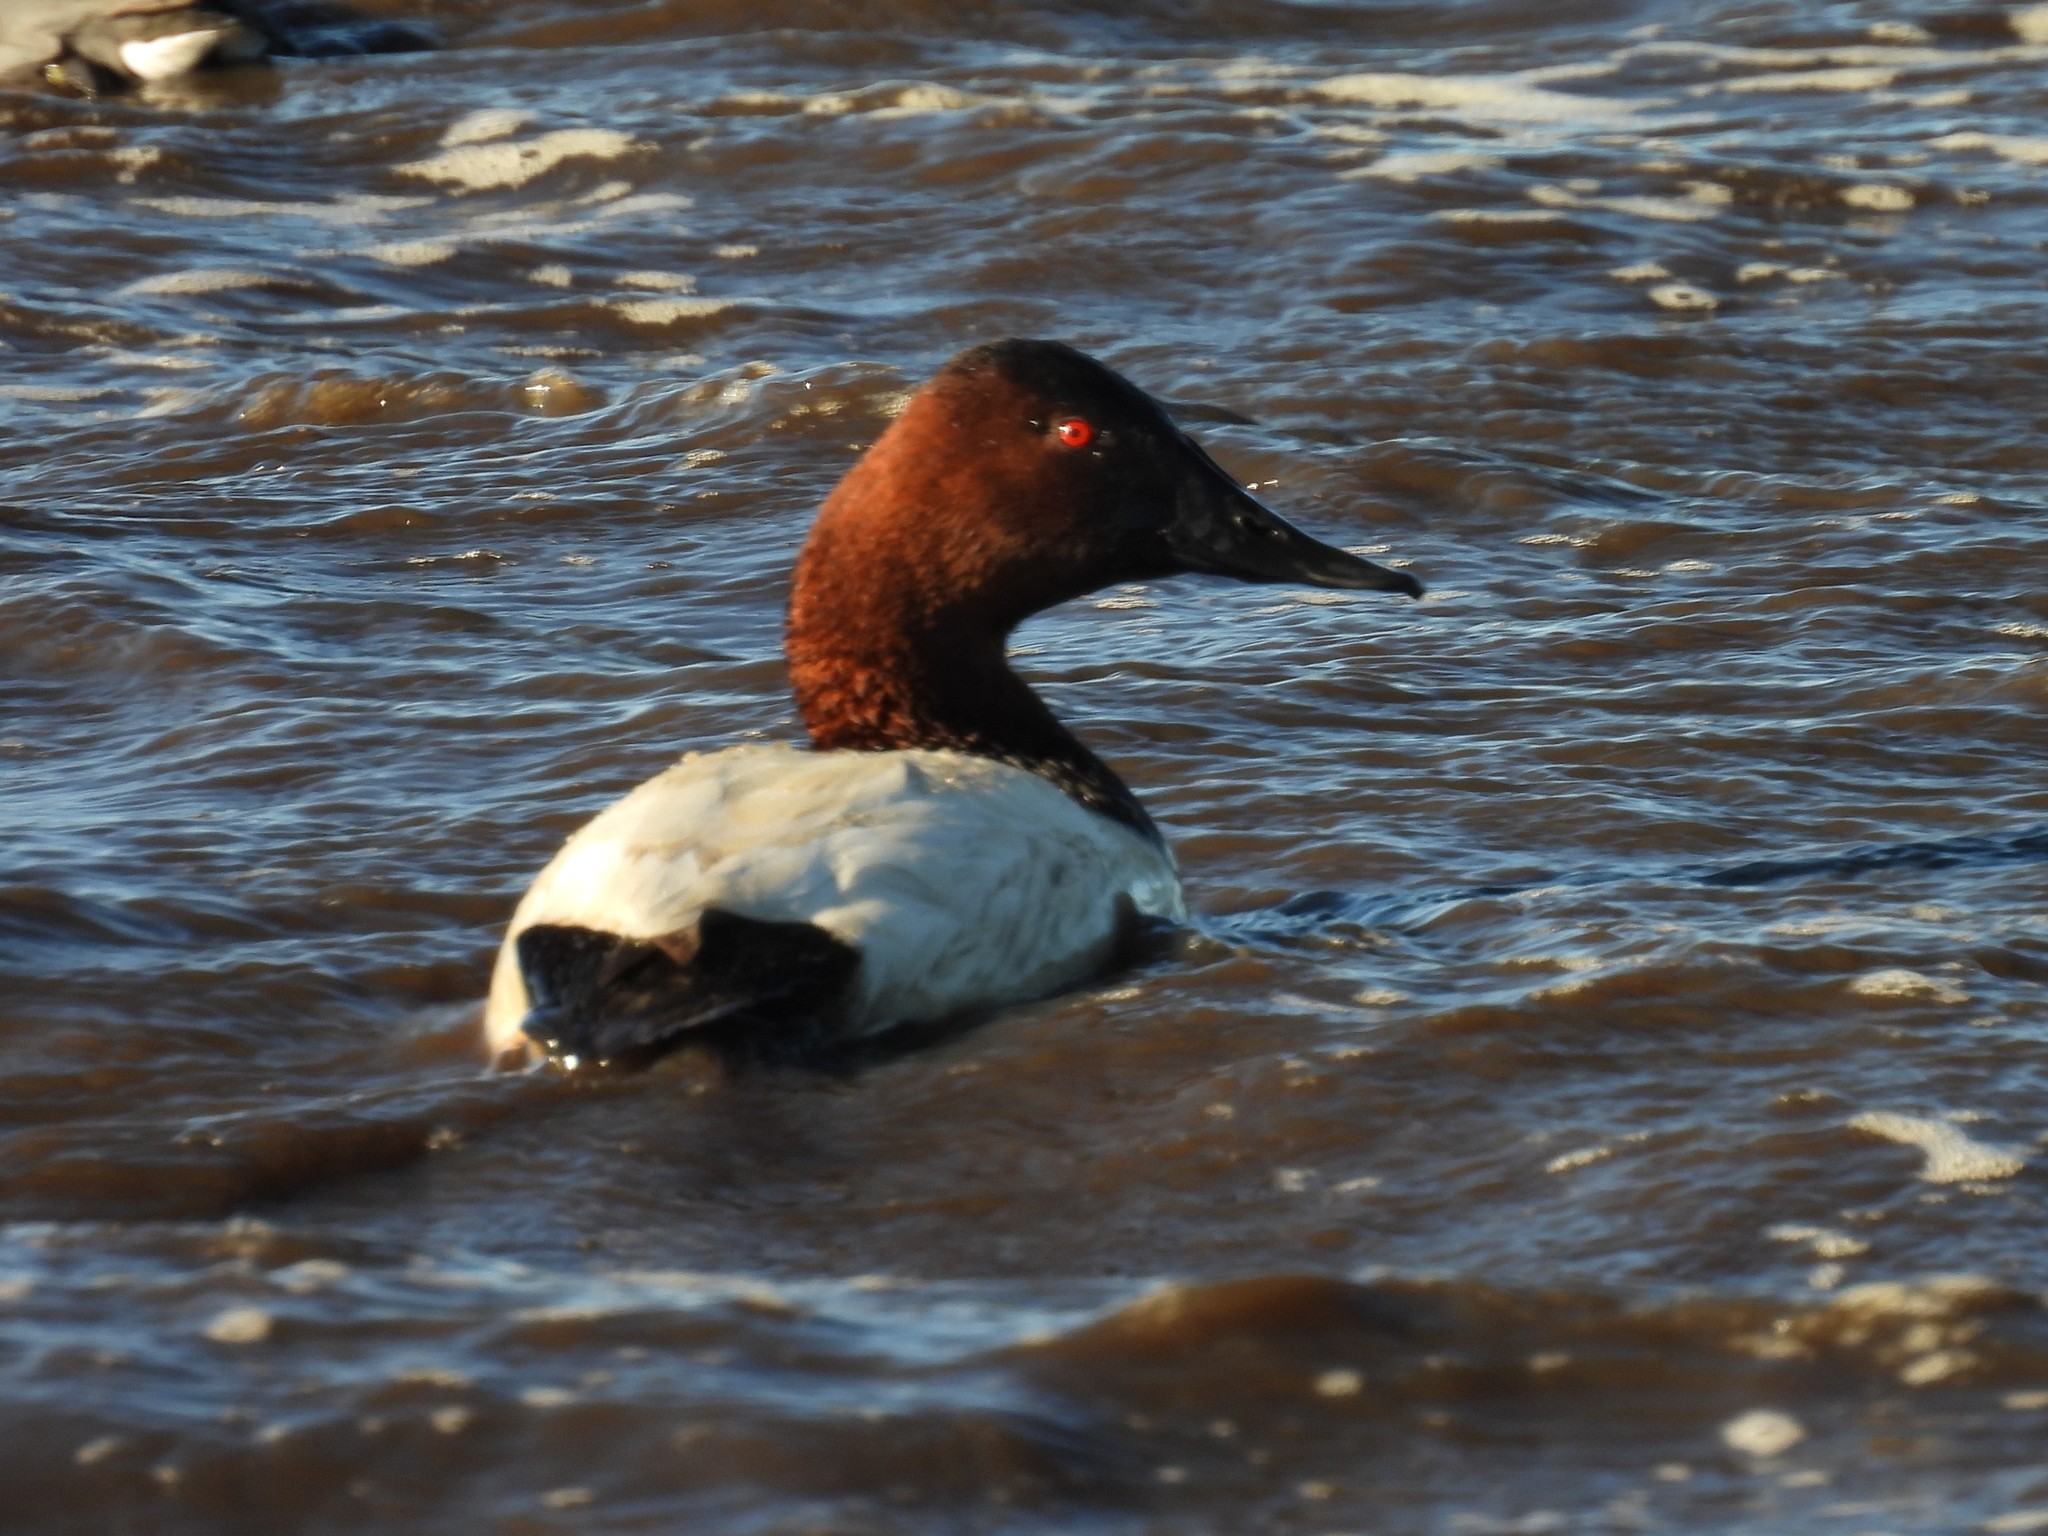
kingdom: Animalia
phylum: Chordata
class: Aves
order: Anseriformes
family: Anatidae
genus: Aythya
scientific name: Aythya valisineria
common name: Canvasback
